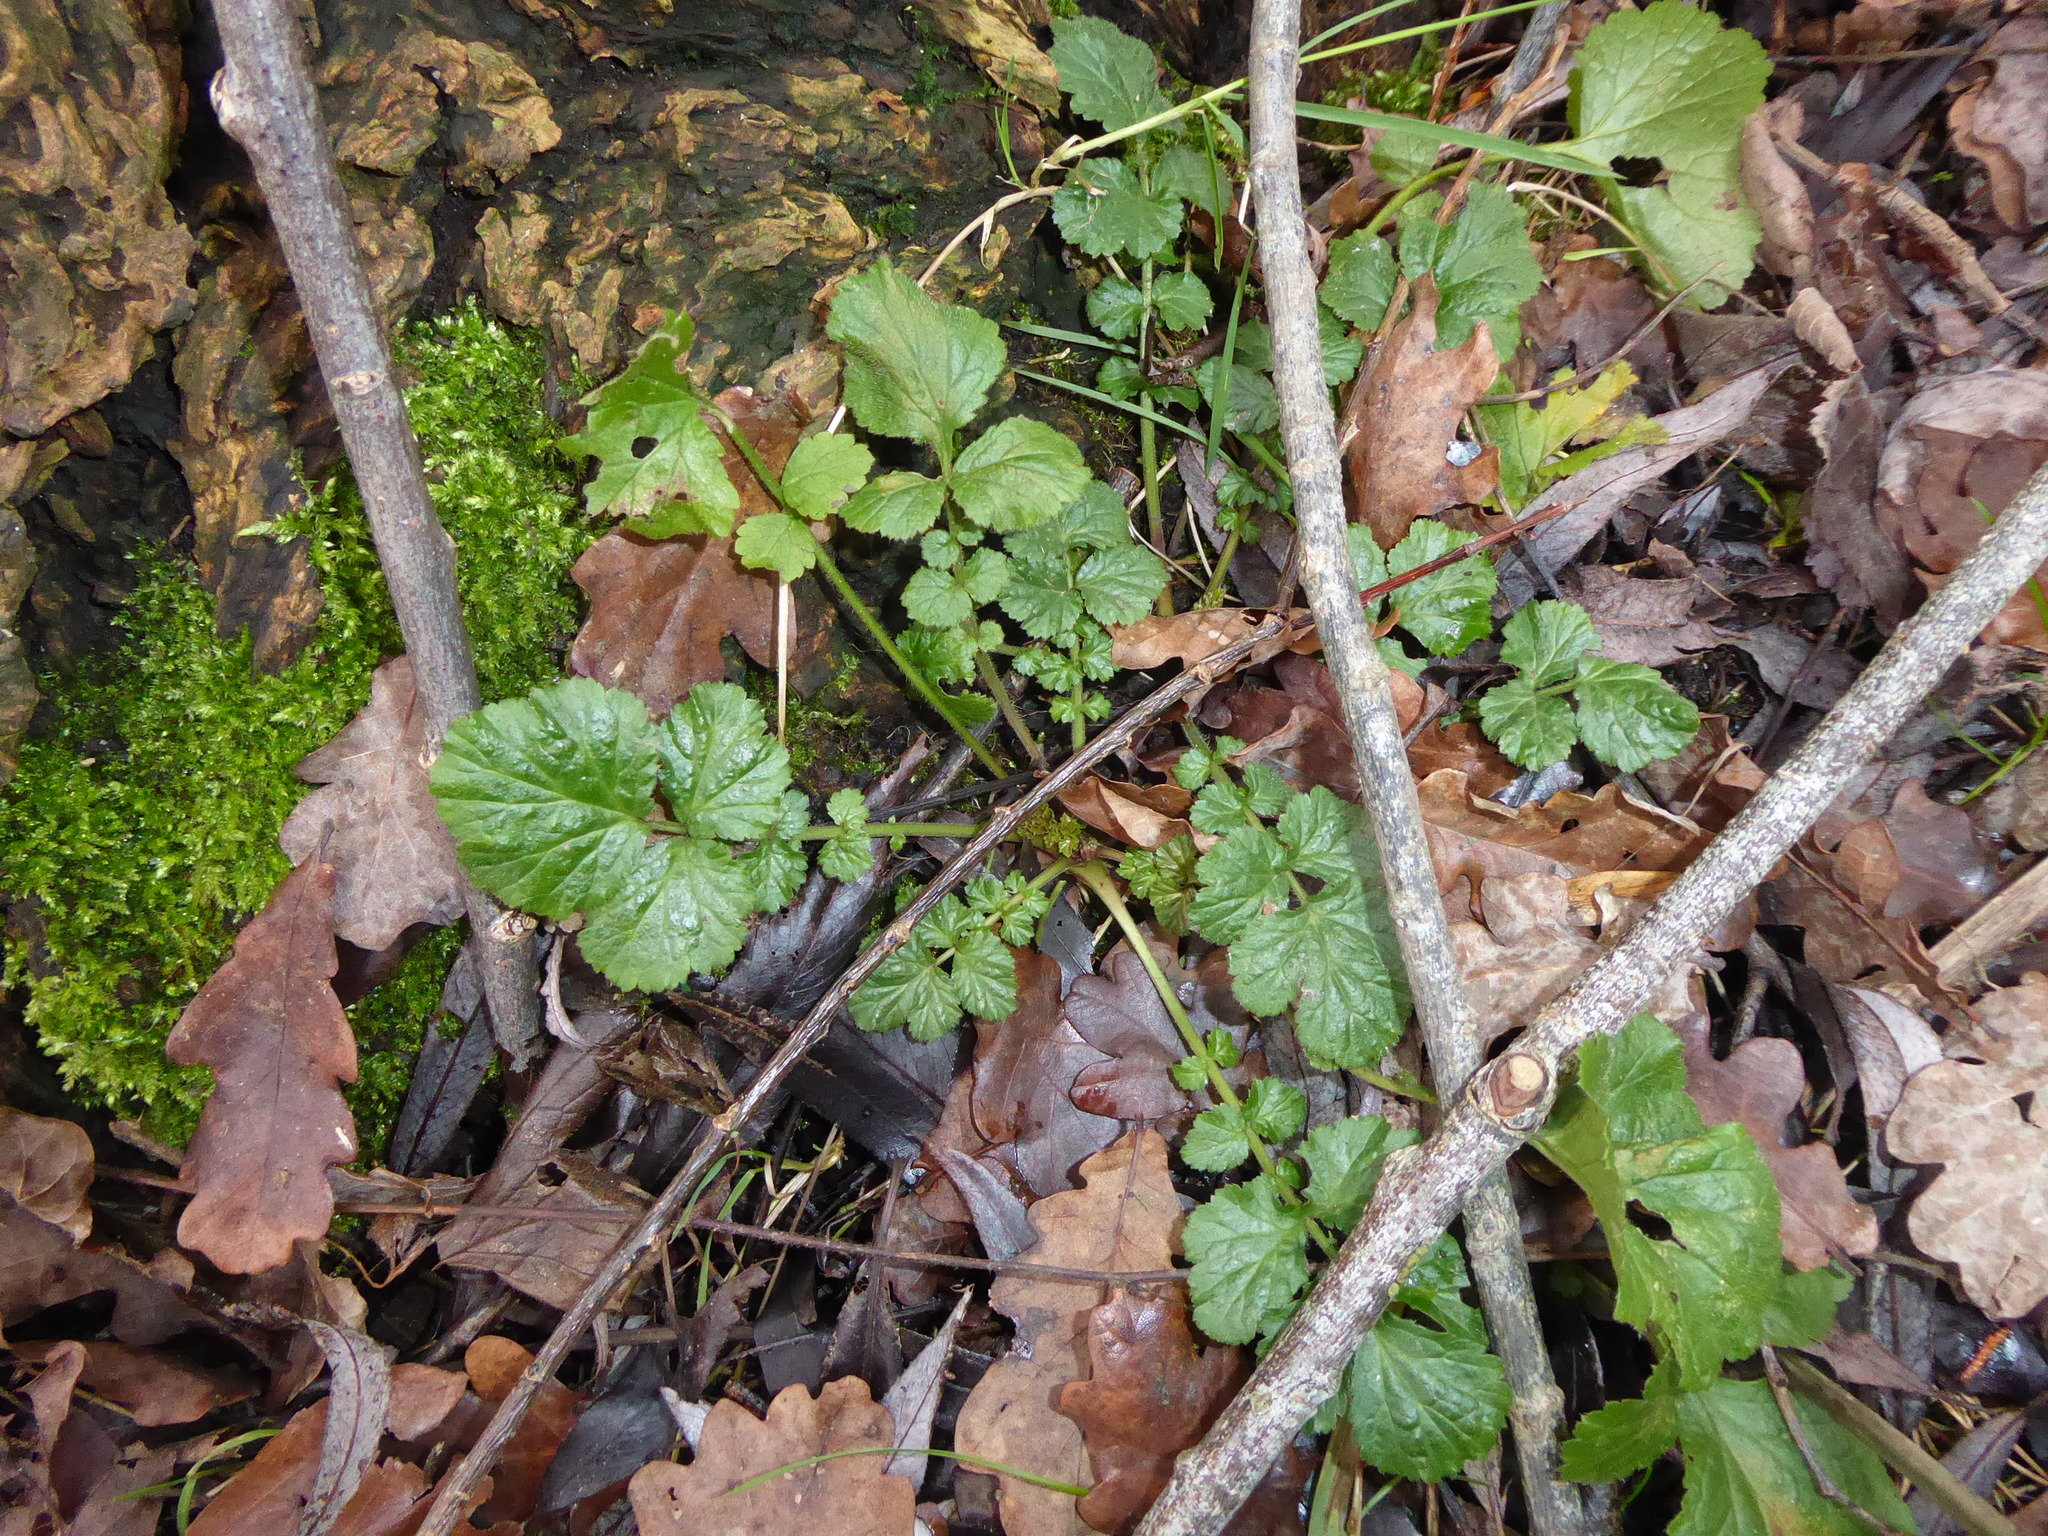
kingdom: Plantae
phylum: Tracheophyta
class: Magnoliopsida
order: Rosales
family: Rosaceae
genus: Geum
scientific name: Geum urbanum
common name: Wood avens
